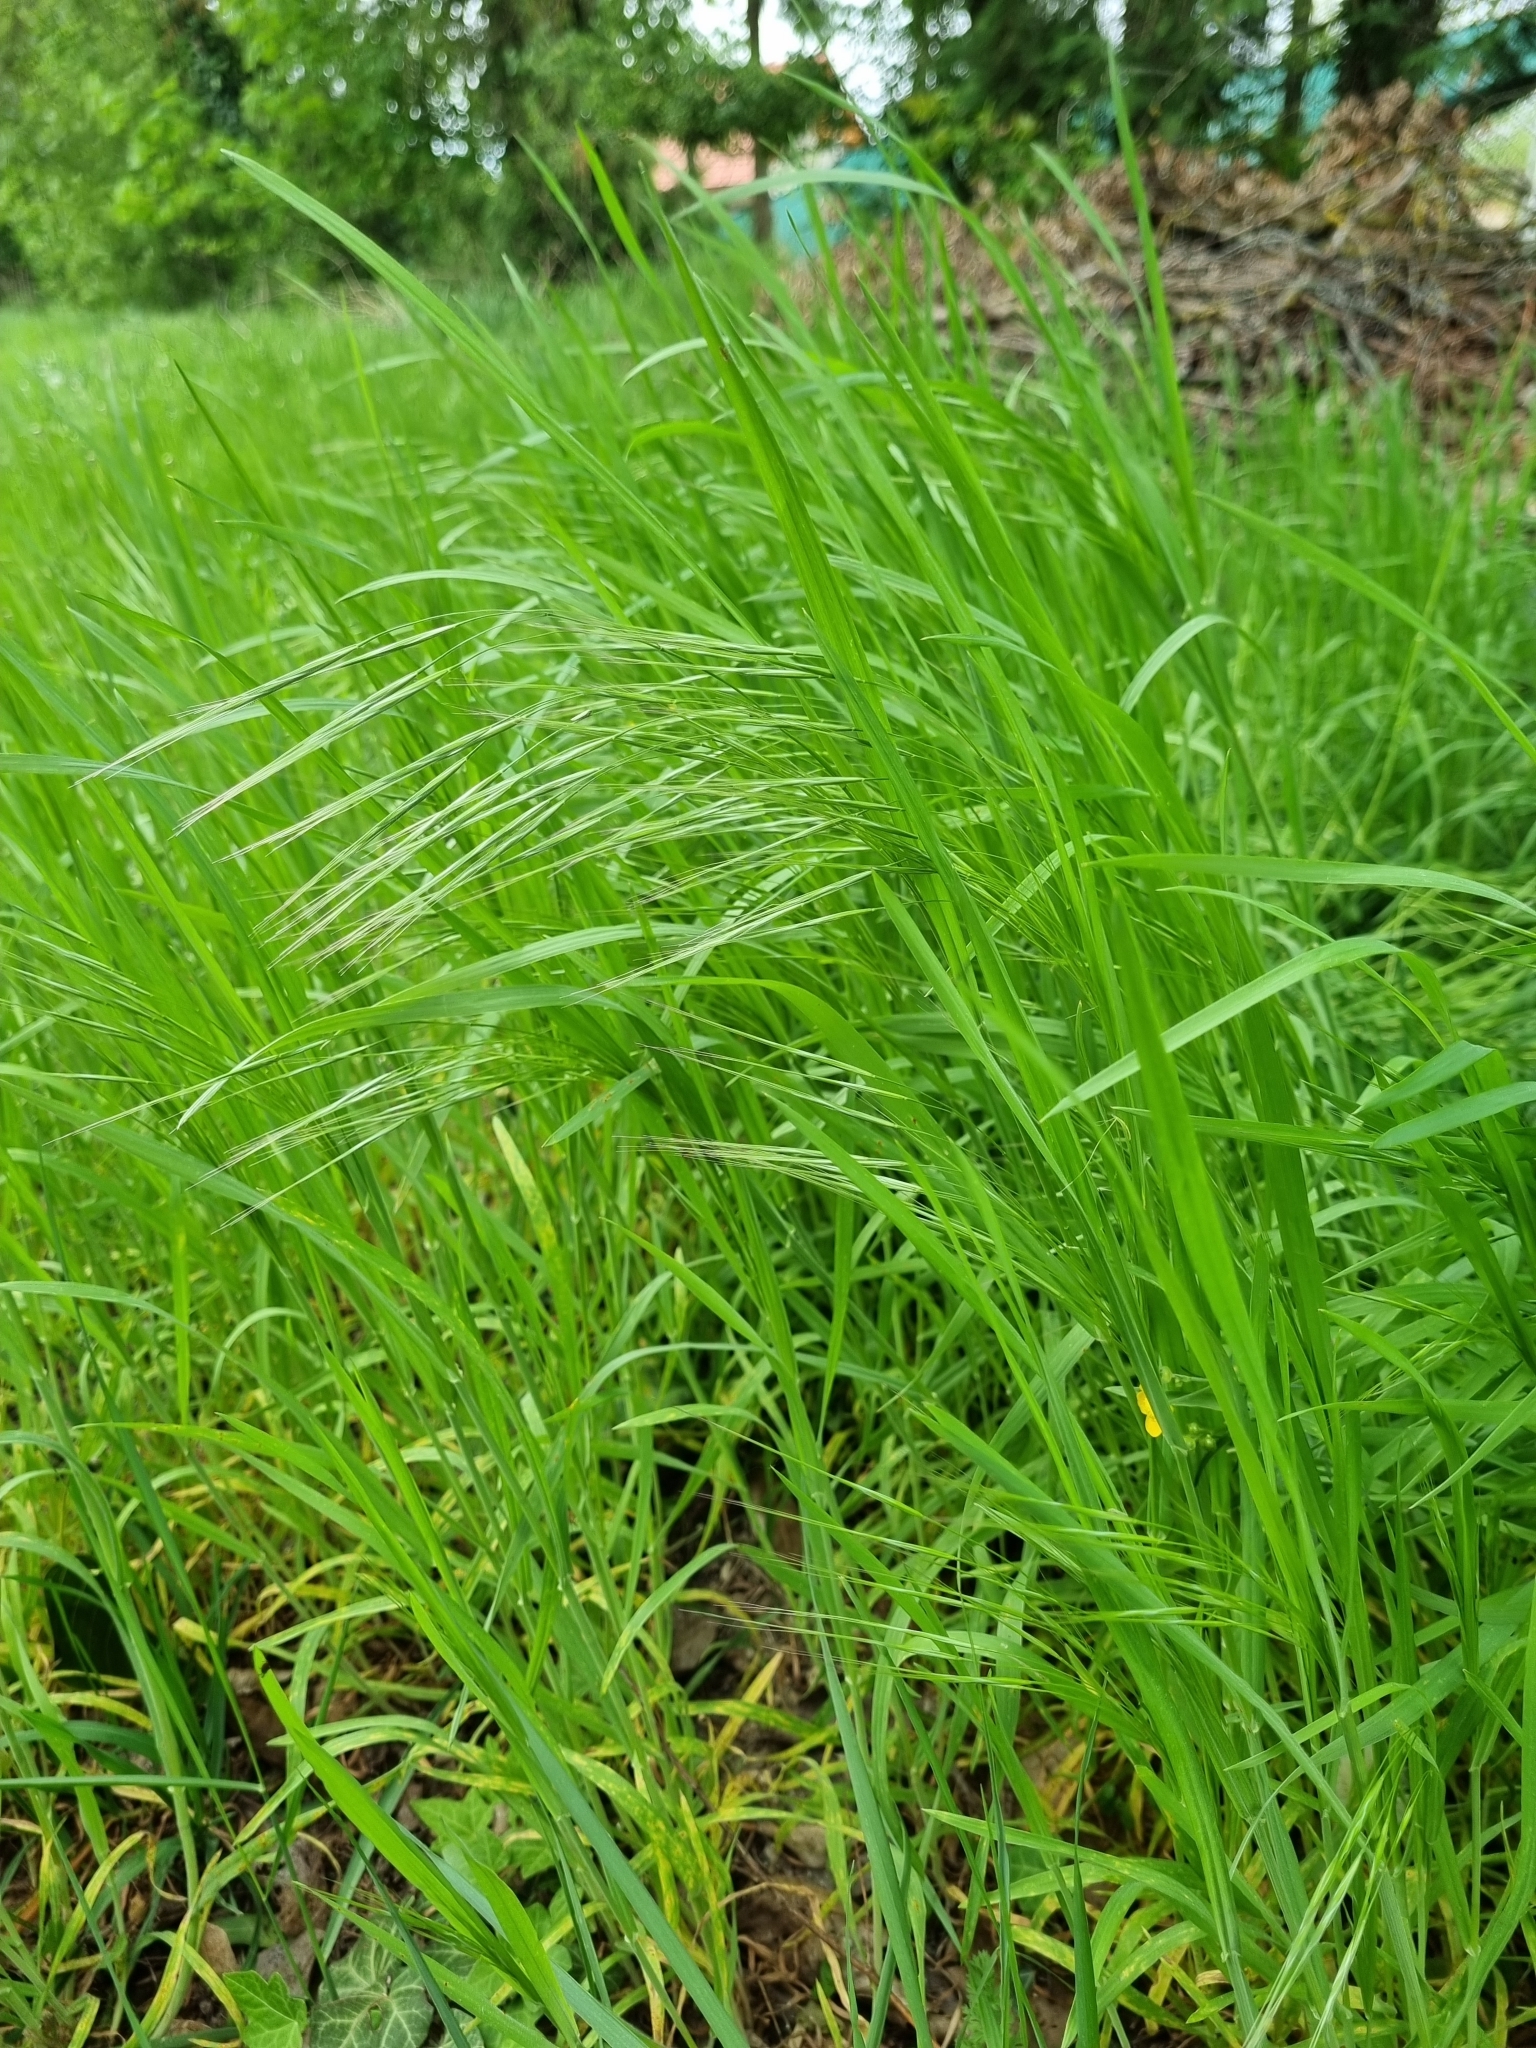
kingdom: Plantae
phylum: Tracheophyta
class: Liliopsida
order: Poales
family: Poaceae
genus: Bromus
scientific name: Bromus sterilis
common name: Poverty brome
